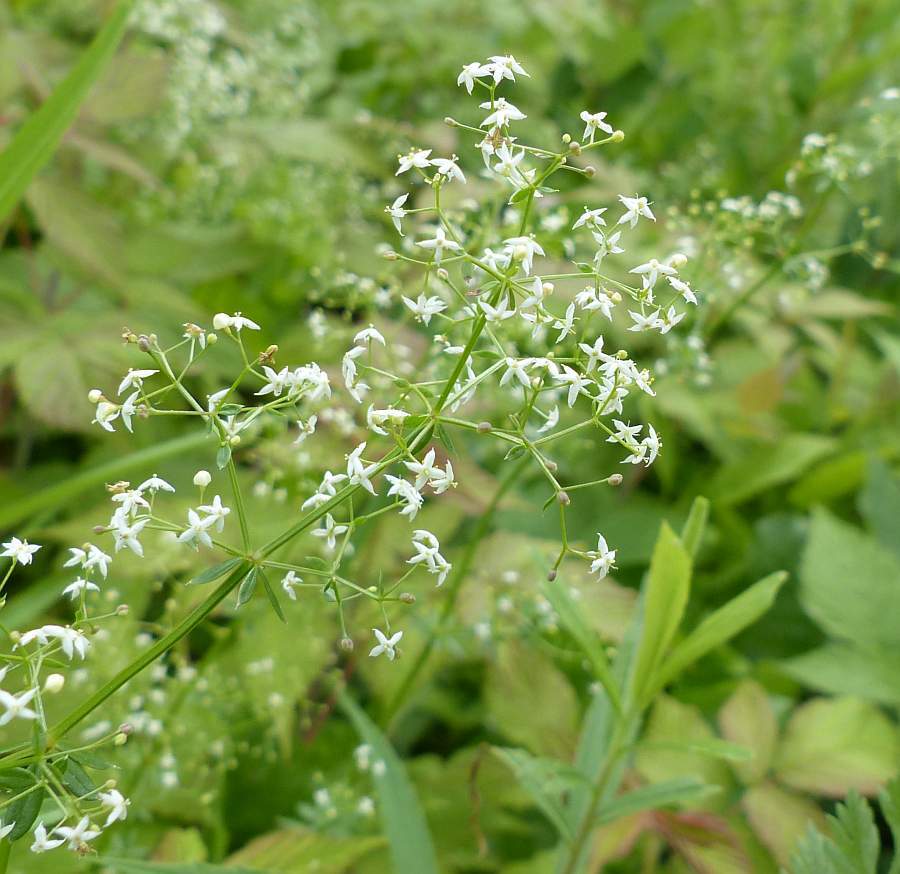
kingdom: Plantae
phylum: Tracheophyta
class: Magnoliopsida
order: Gentianales
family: Rubiaceae
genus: Galium
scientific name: Galium mollugo
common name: Hedge bedstraw
